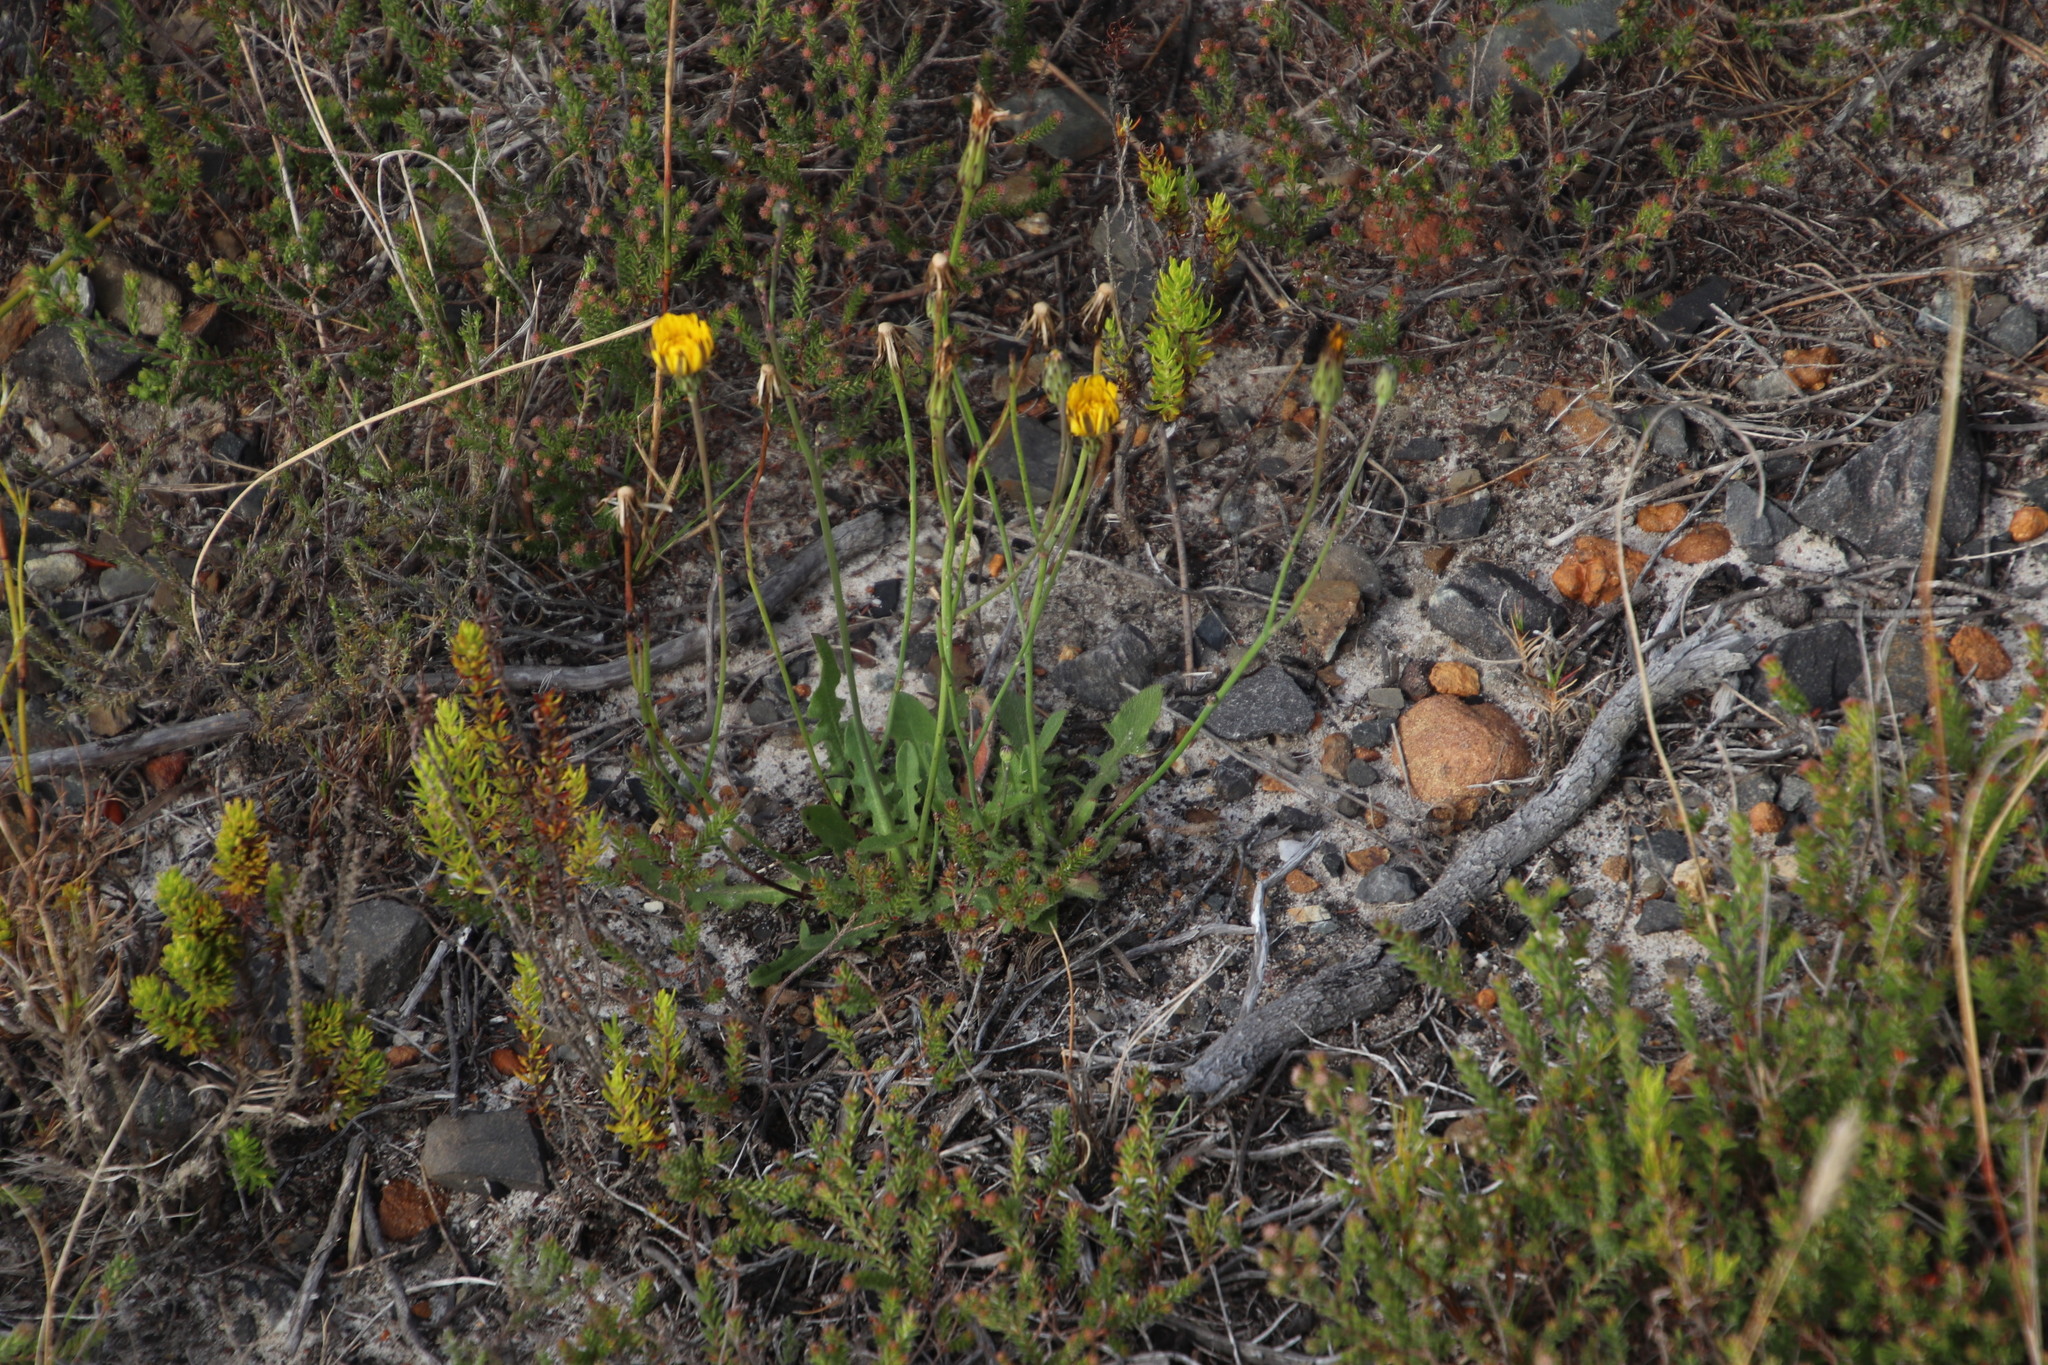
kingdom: Plantae
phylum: Tracheophyta
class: Magnoliopsida
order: Asterales
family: Asteraceae
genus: Hypochaeris
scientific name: Hypochaeris radicata
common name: Flatweed
